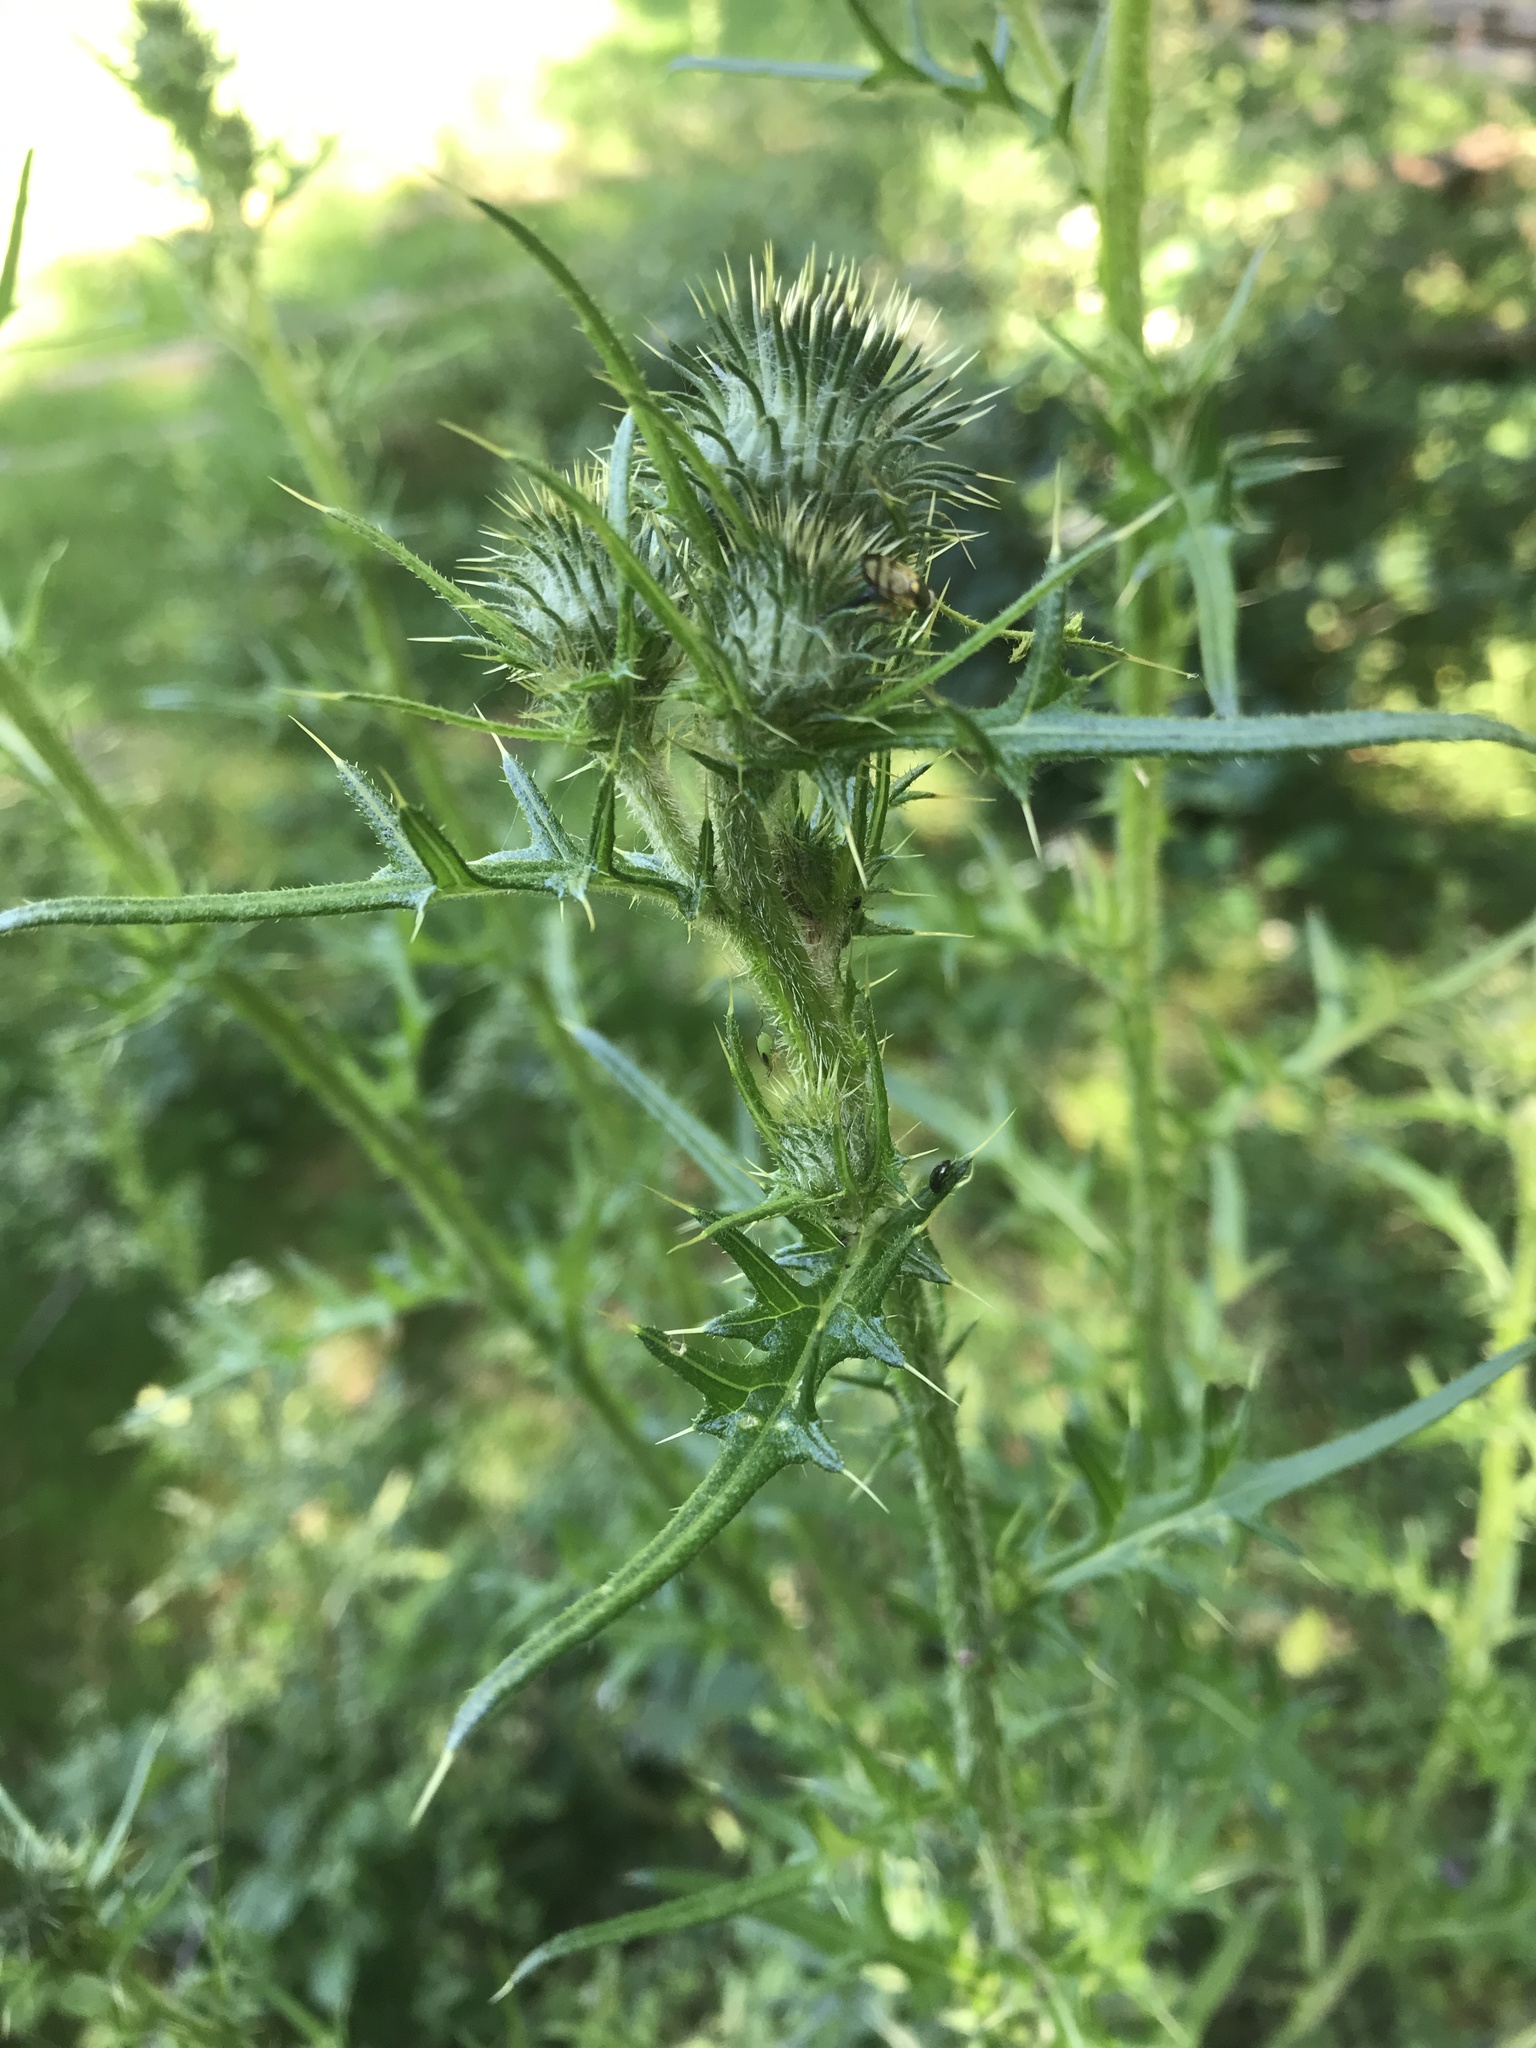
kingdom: Plantae
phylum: Tracheophyta
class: Magnoliopsida
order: Asterales
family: Asteraceae
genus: Cirsium
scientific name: Cirsium vulgare
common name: Bull thistle
